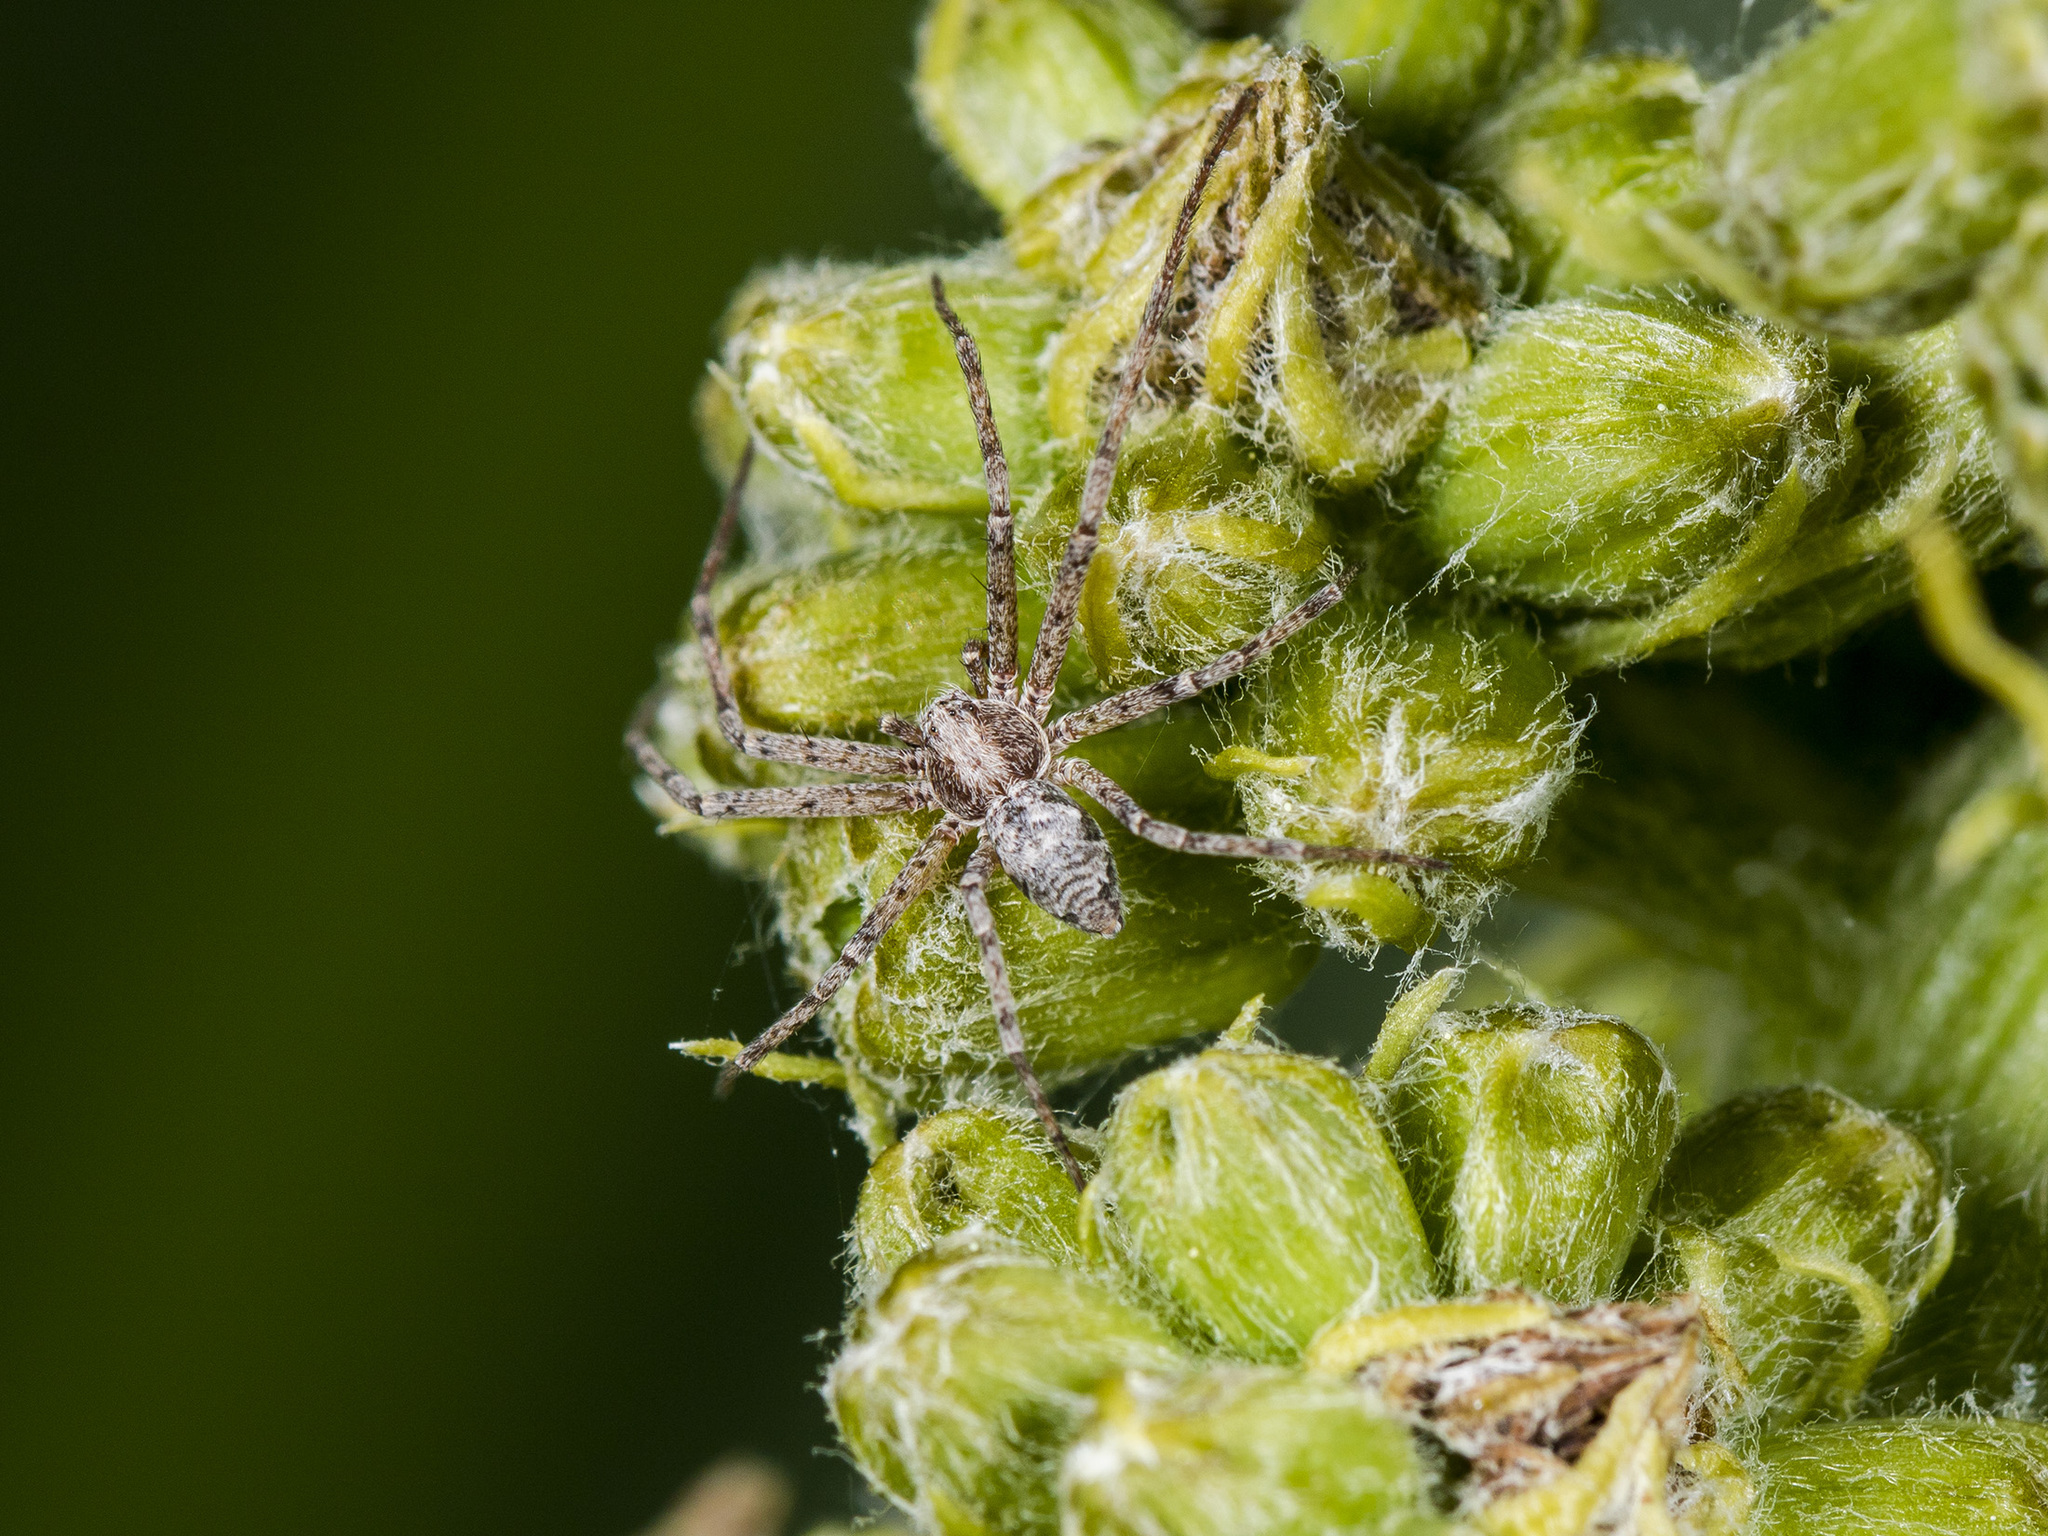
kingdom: Animalia
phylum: Arthropoda
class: Arachnida
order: Araneae
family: Philodromidae
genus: Rhysodromus
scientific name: Rhysodromus pictus
